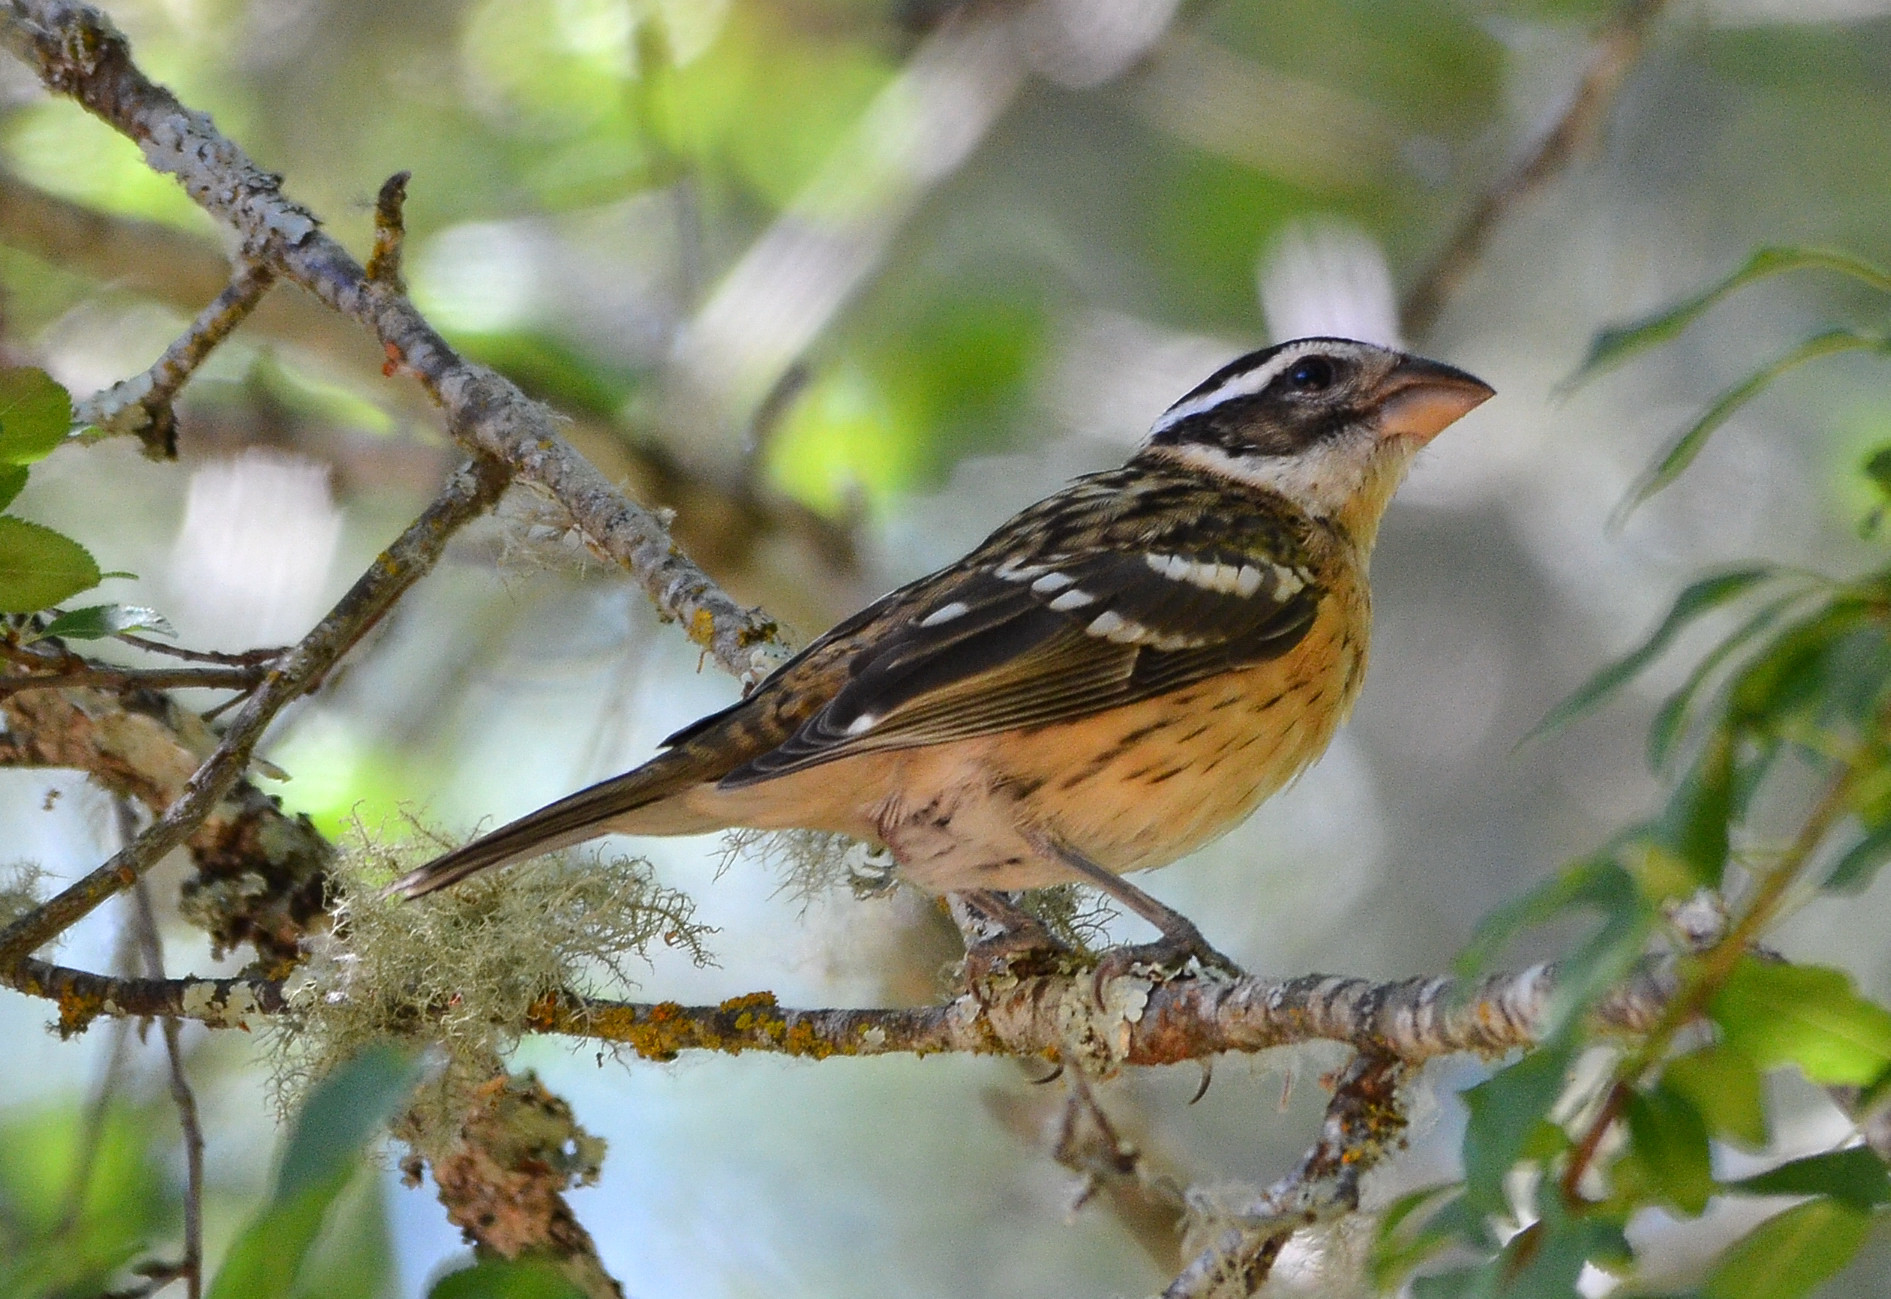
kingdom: Animalia
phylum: Chordata
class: Aves
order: Passeriformes
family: Cardinalidae
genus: Pheucticus
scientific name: Pheucticus melanocephalus
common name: Black-headed grosbeak
